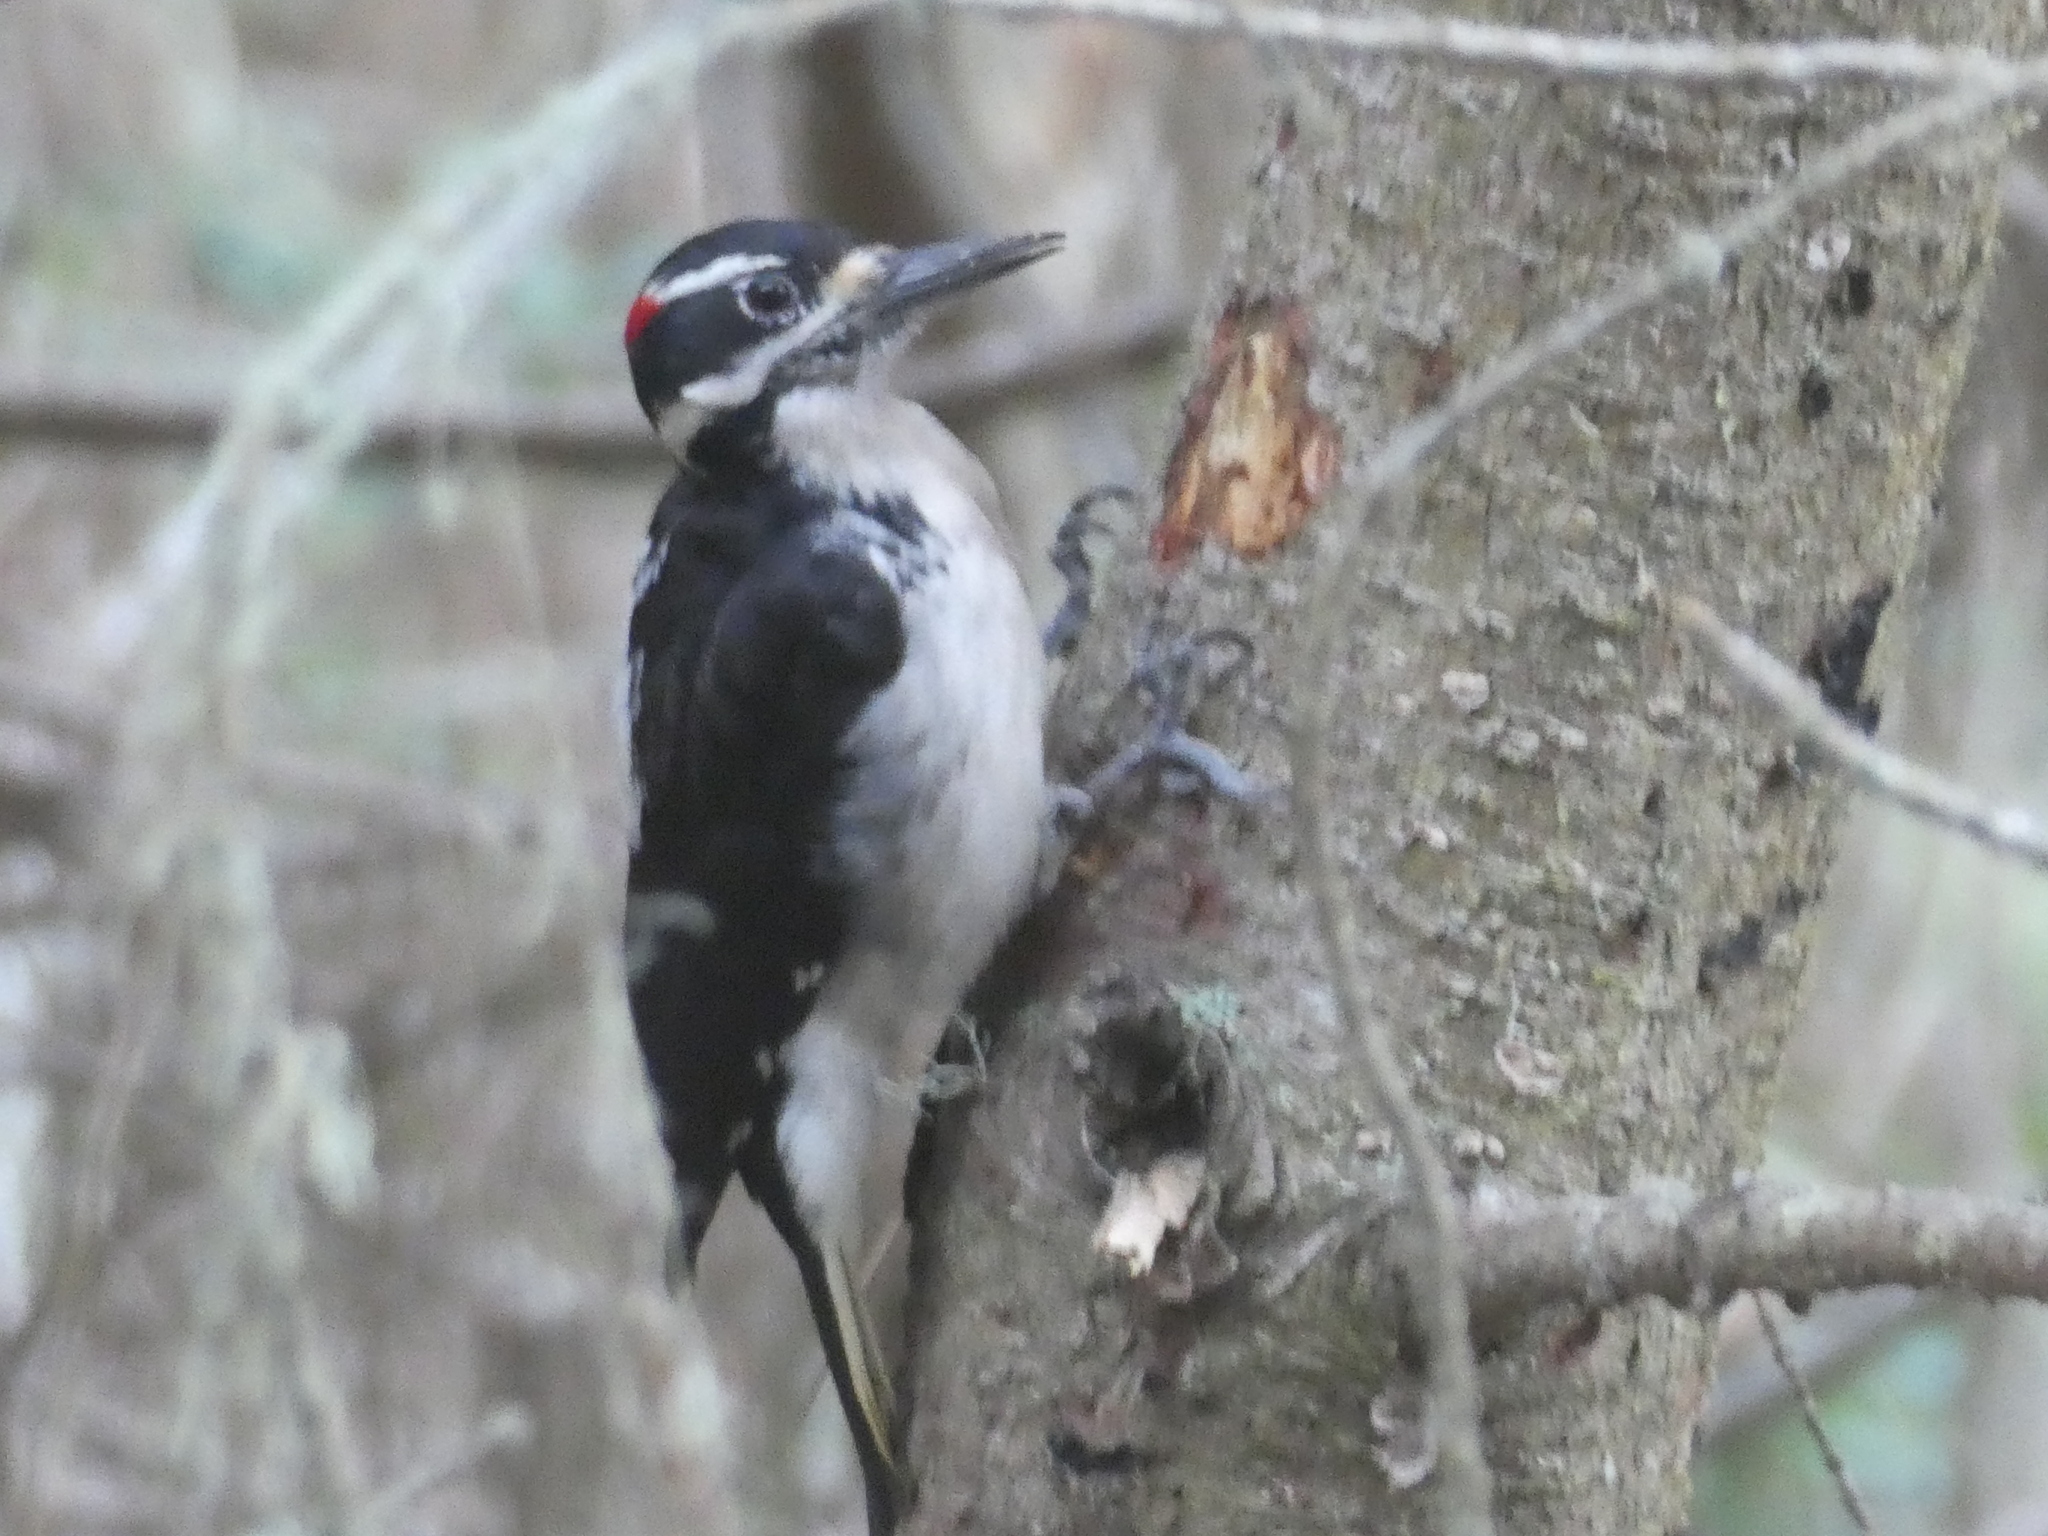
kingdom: Animalia
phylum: Chordata
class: Aves
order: Piciformes
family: Picidae
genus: Leuconotopicus
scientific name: Leuconotopicus villosus
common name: Hairy woodpecker
